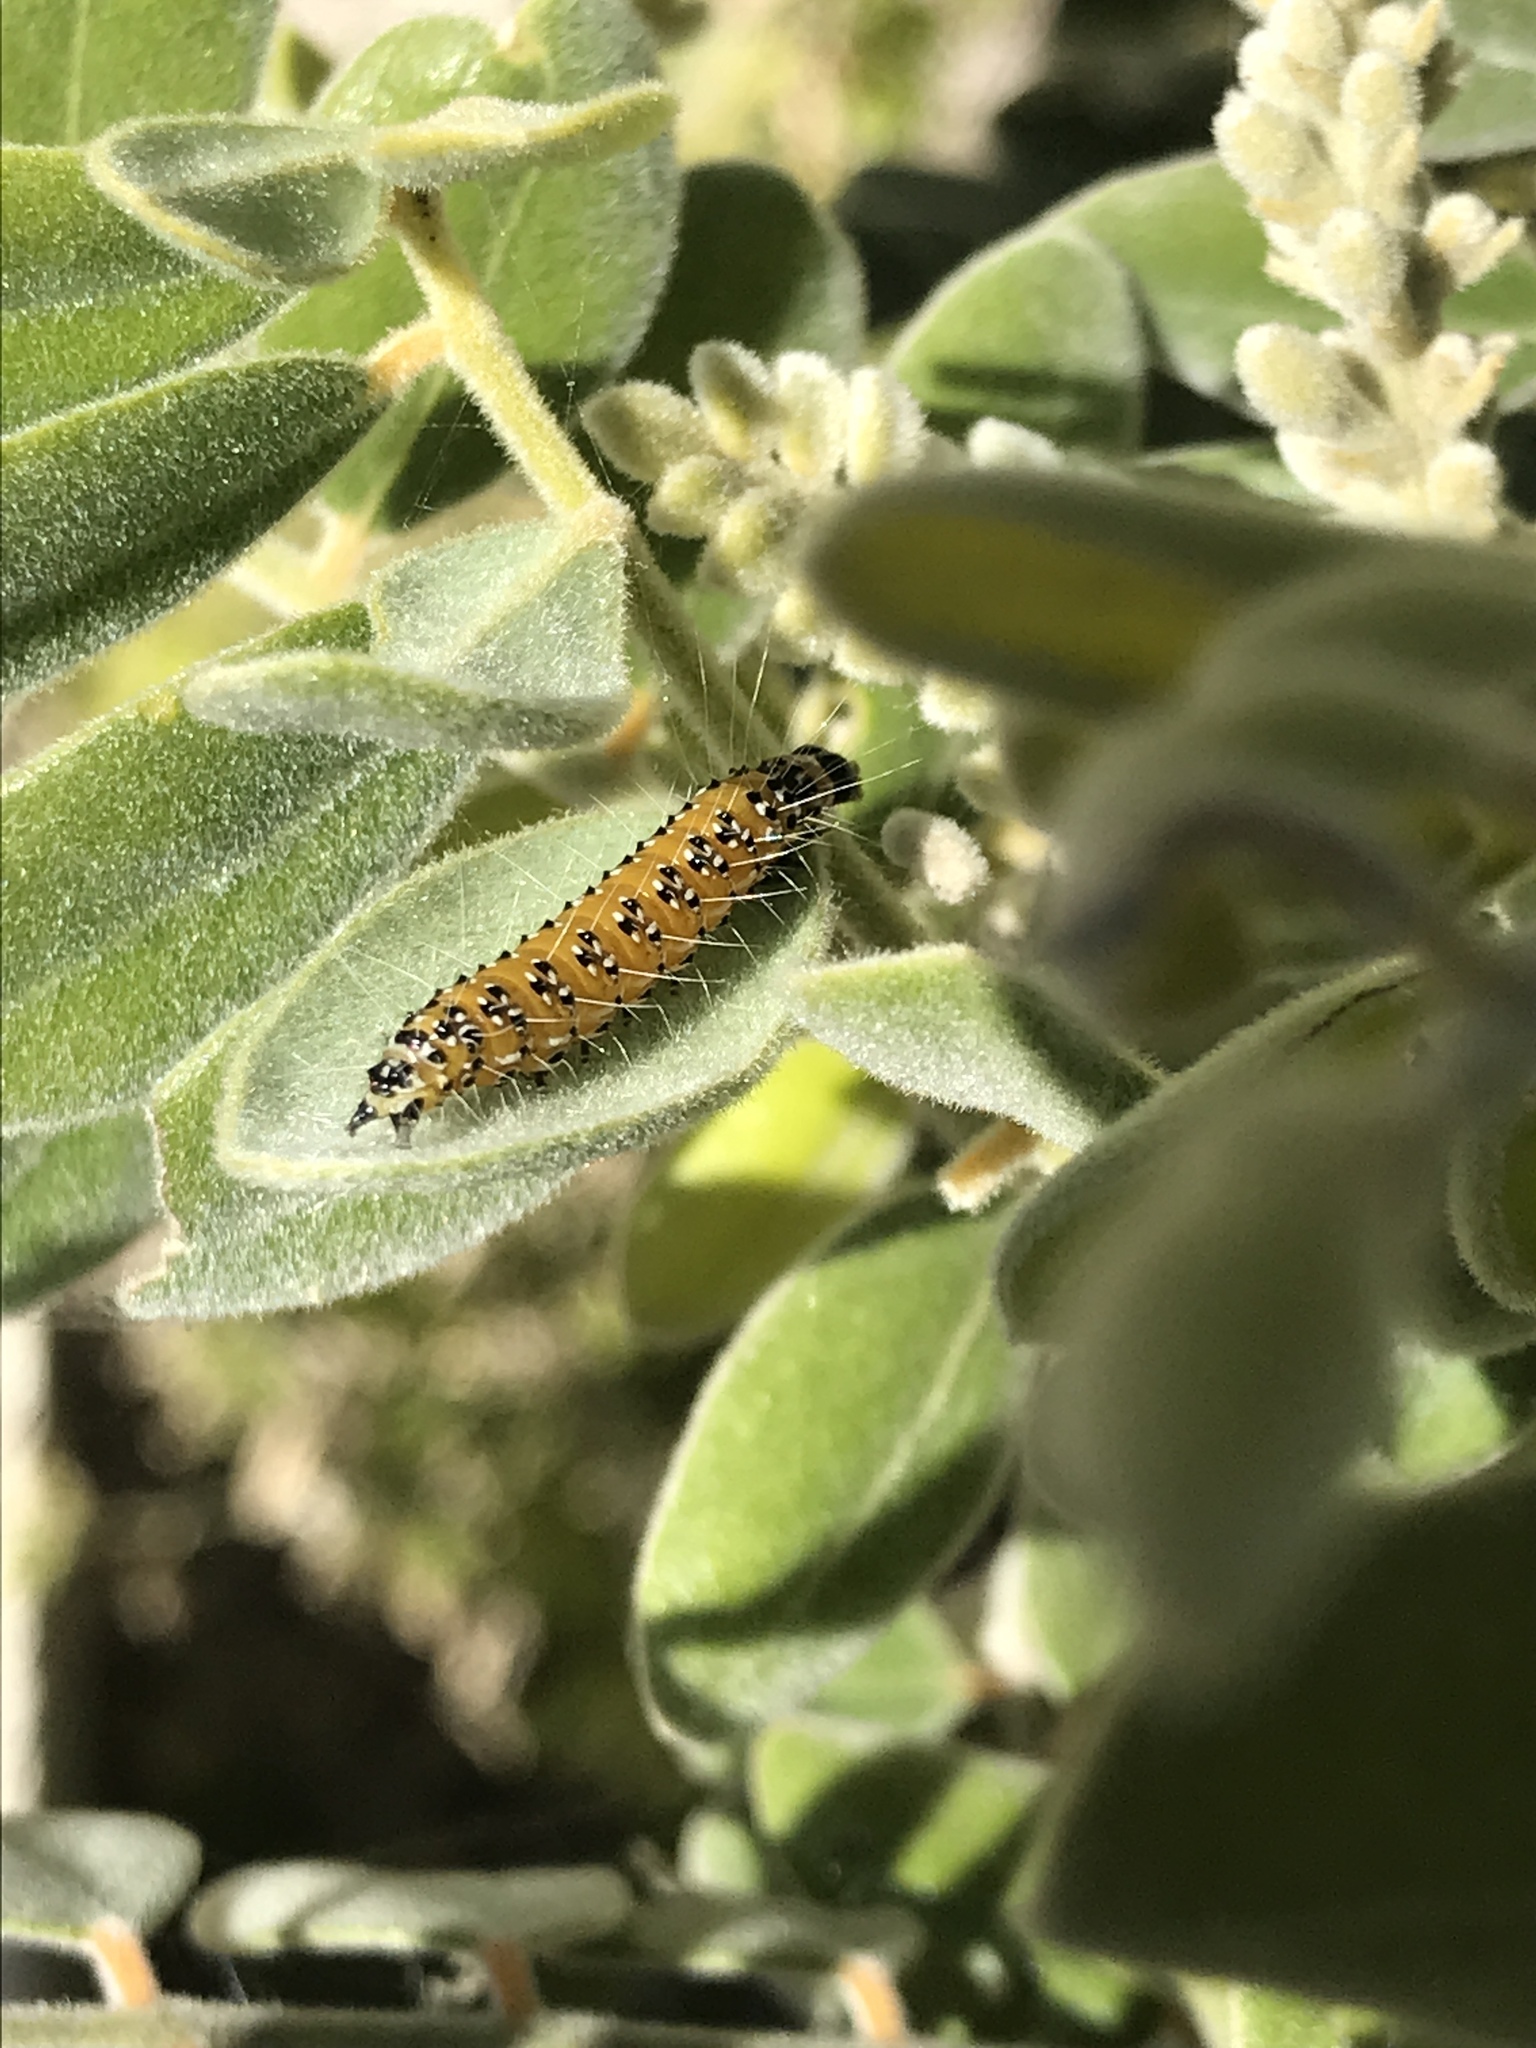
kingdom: Animalia
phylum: Arthropoda
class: Insecta
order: Lepidoptera
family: Crambidae
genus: Uresiphita
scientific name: Uresiphita reversalis
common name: Genista broom moth
